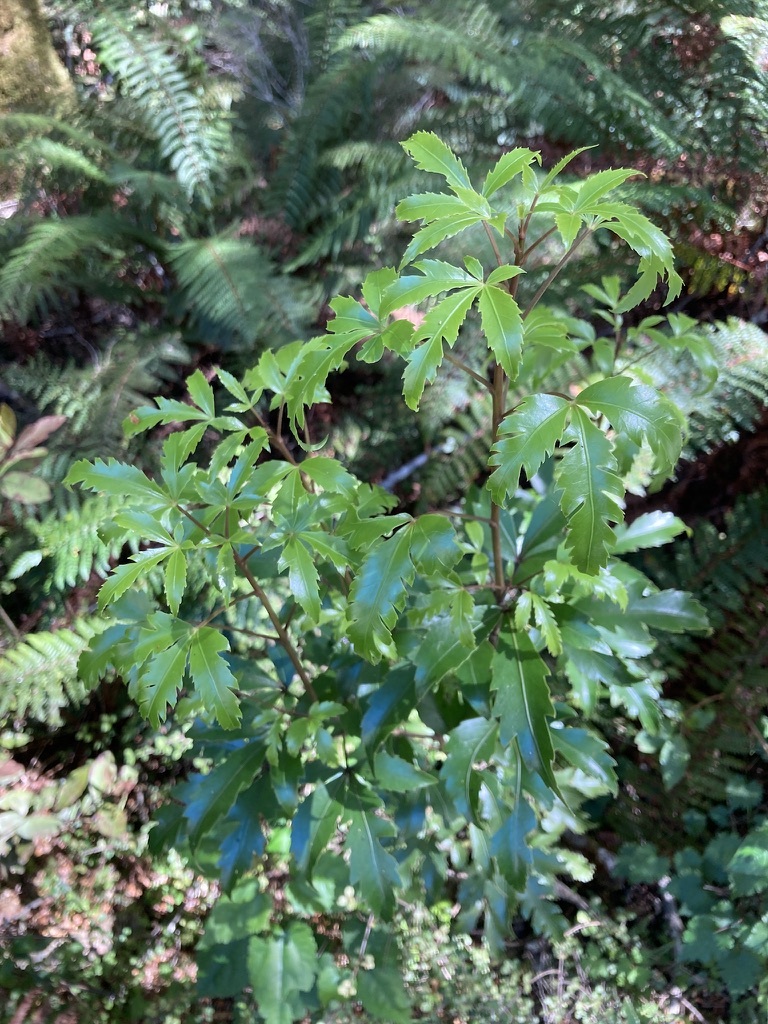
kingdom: Plantae
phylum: Tracheophyta
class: Magnoliopsida
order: Apiales
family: Araliaceae
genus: Raukaua
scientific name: Raukaua simplex
